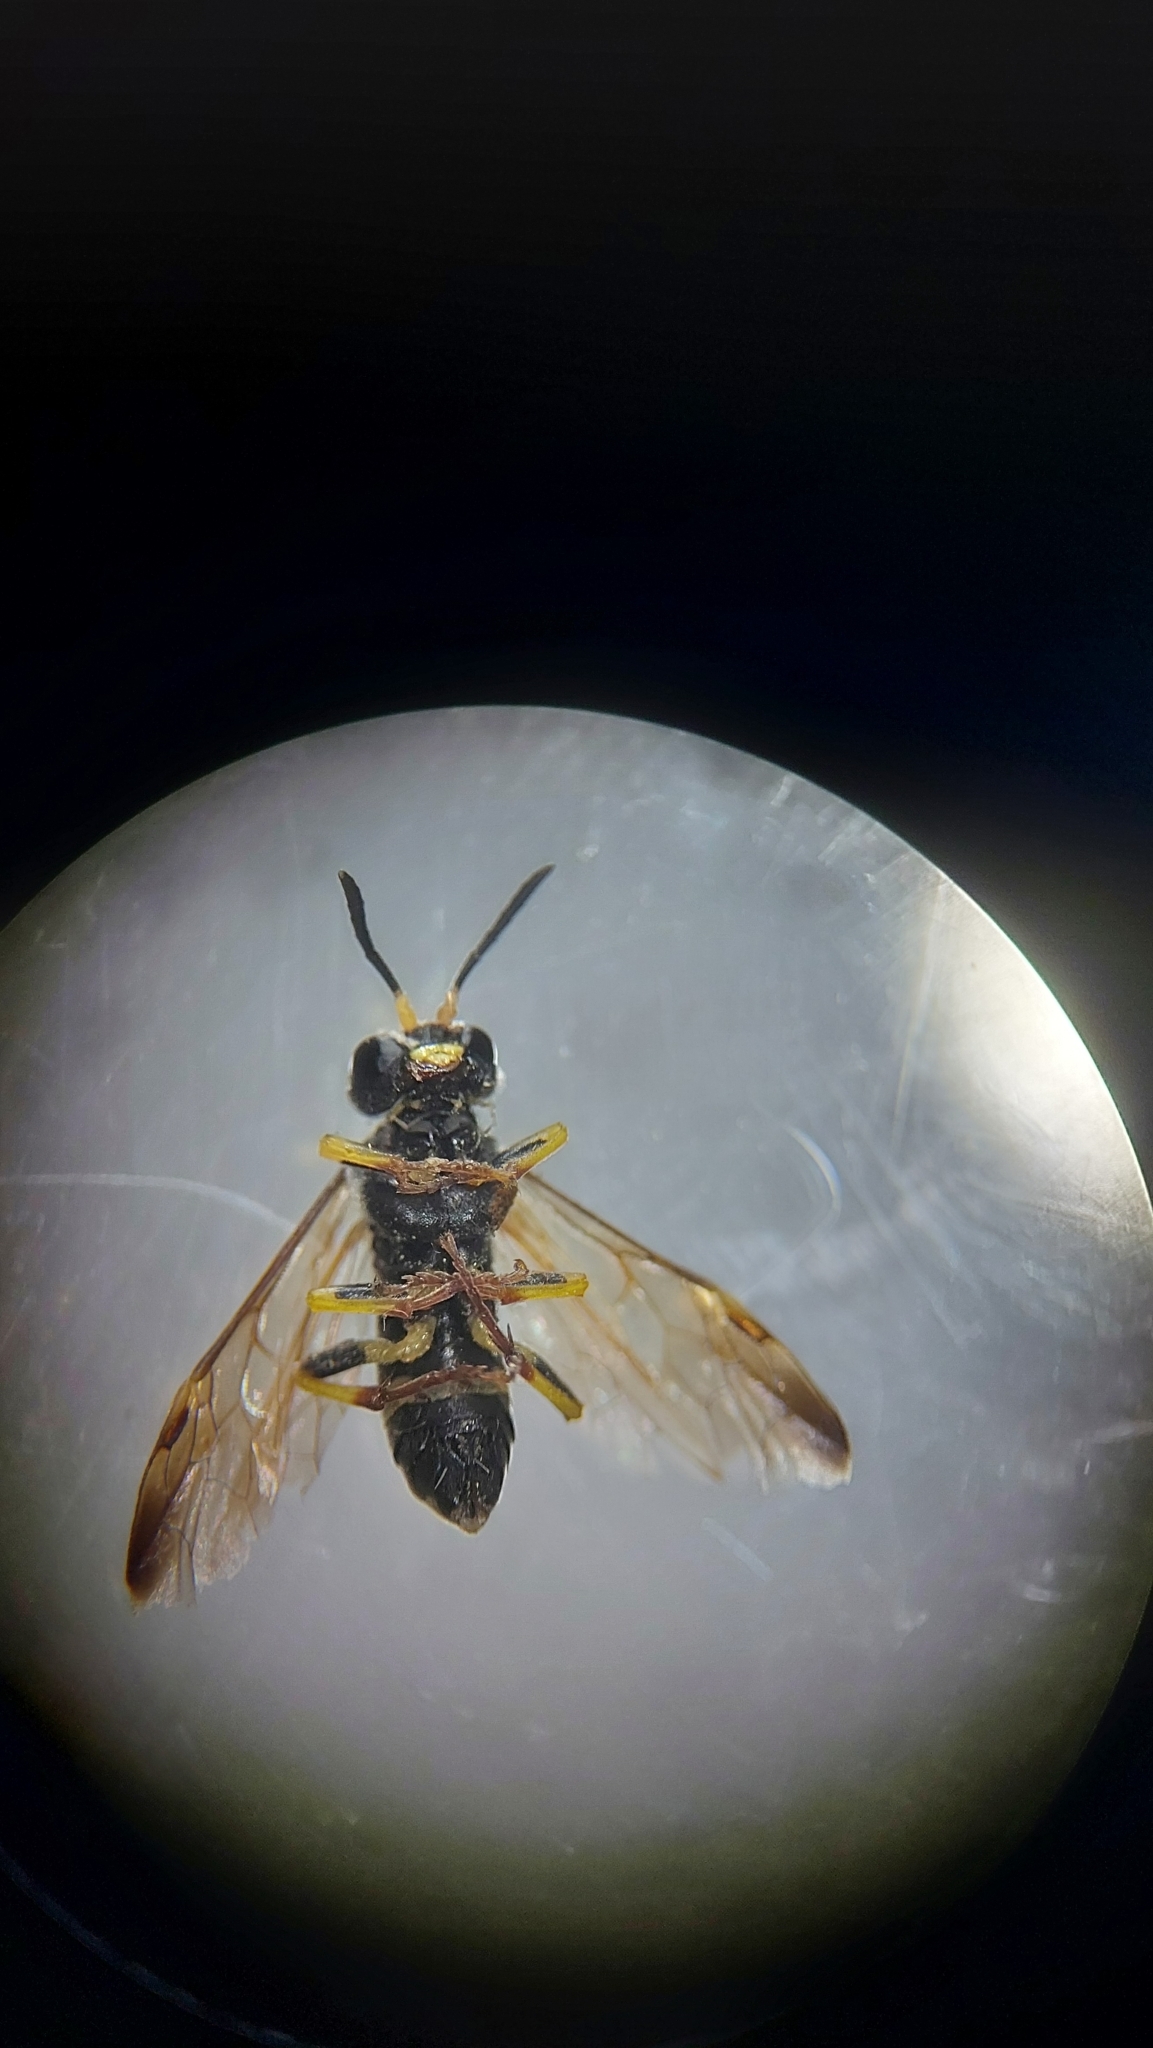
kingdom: Animalia
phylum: Arthropoda
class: Insecta
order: Hymenoptera
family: Tenthredinidae
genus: Tenthredo
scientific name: Tenthredo zona
